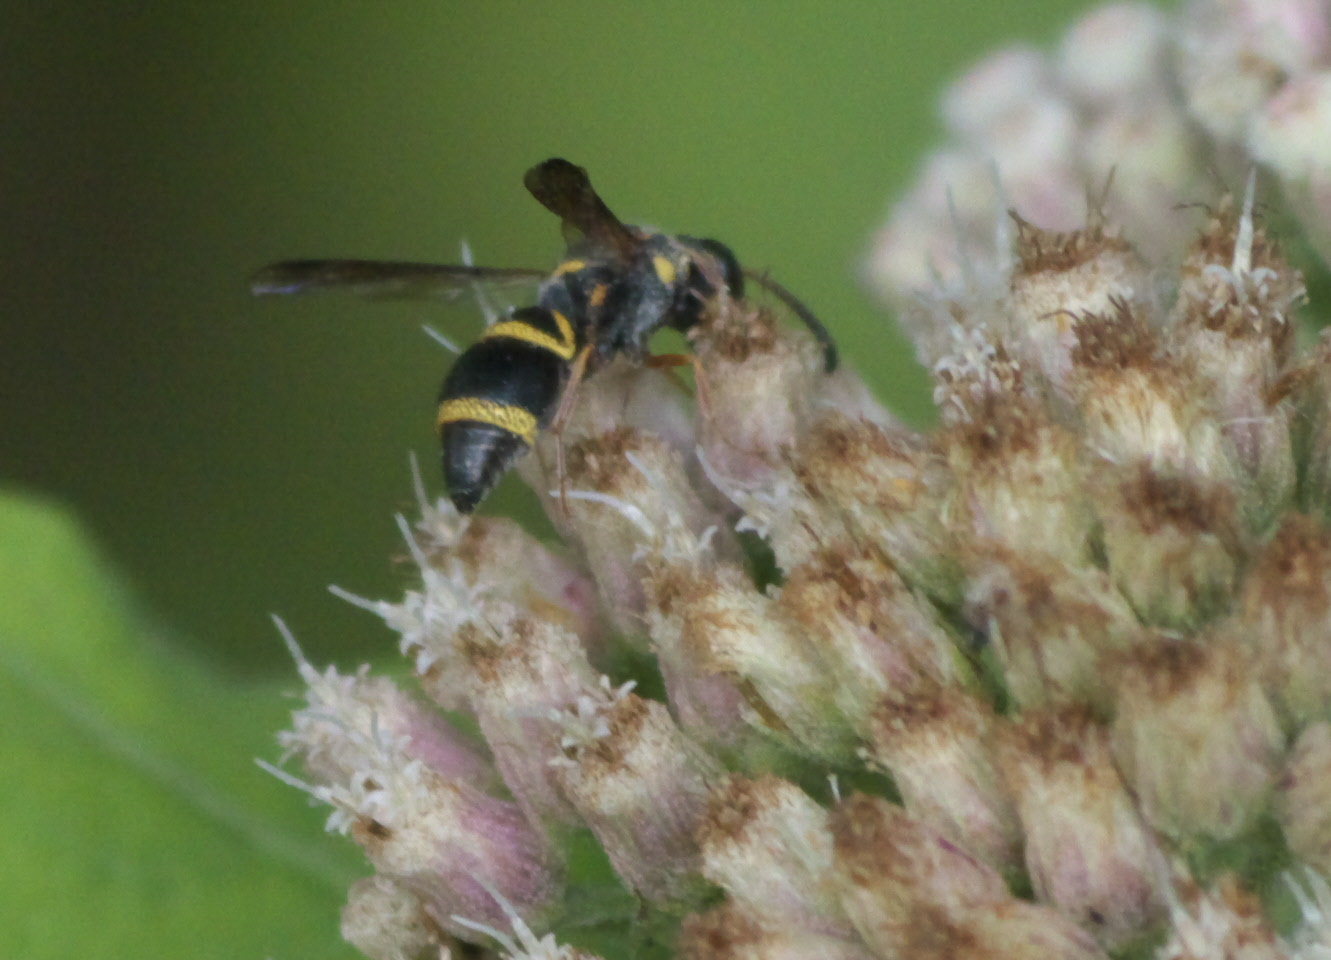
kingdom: Animalia
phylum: Arthropoda
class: Insecta
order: Hymenoptera
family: Eumenidae
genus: Parancistrocerus
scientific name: Parancistrocerus fulvipes
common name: Potter wasp
